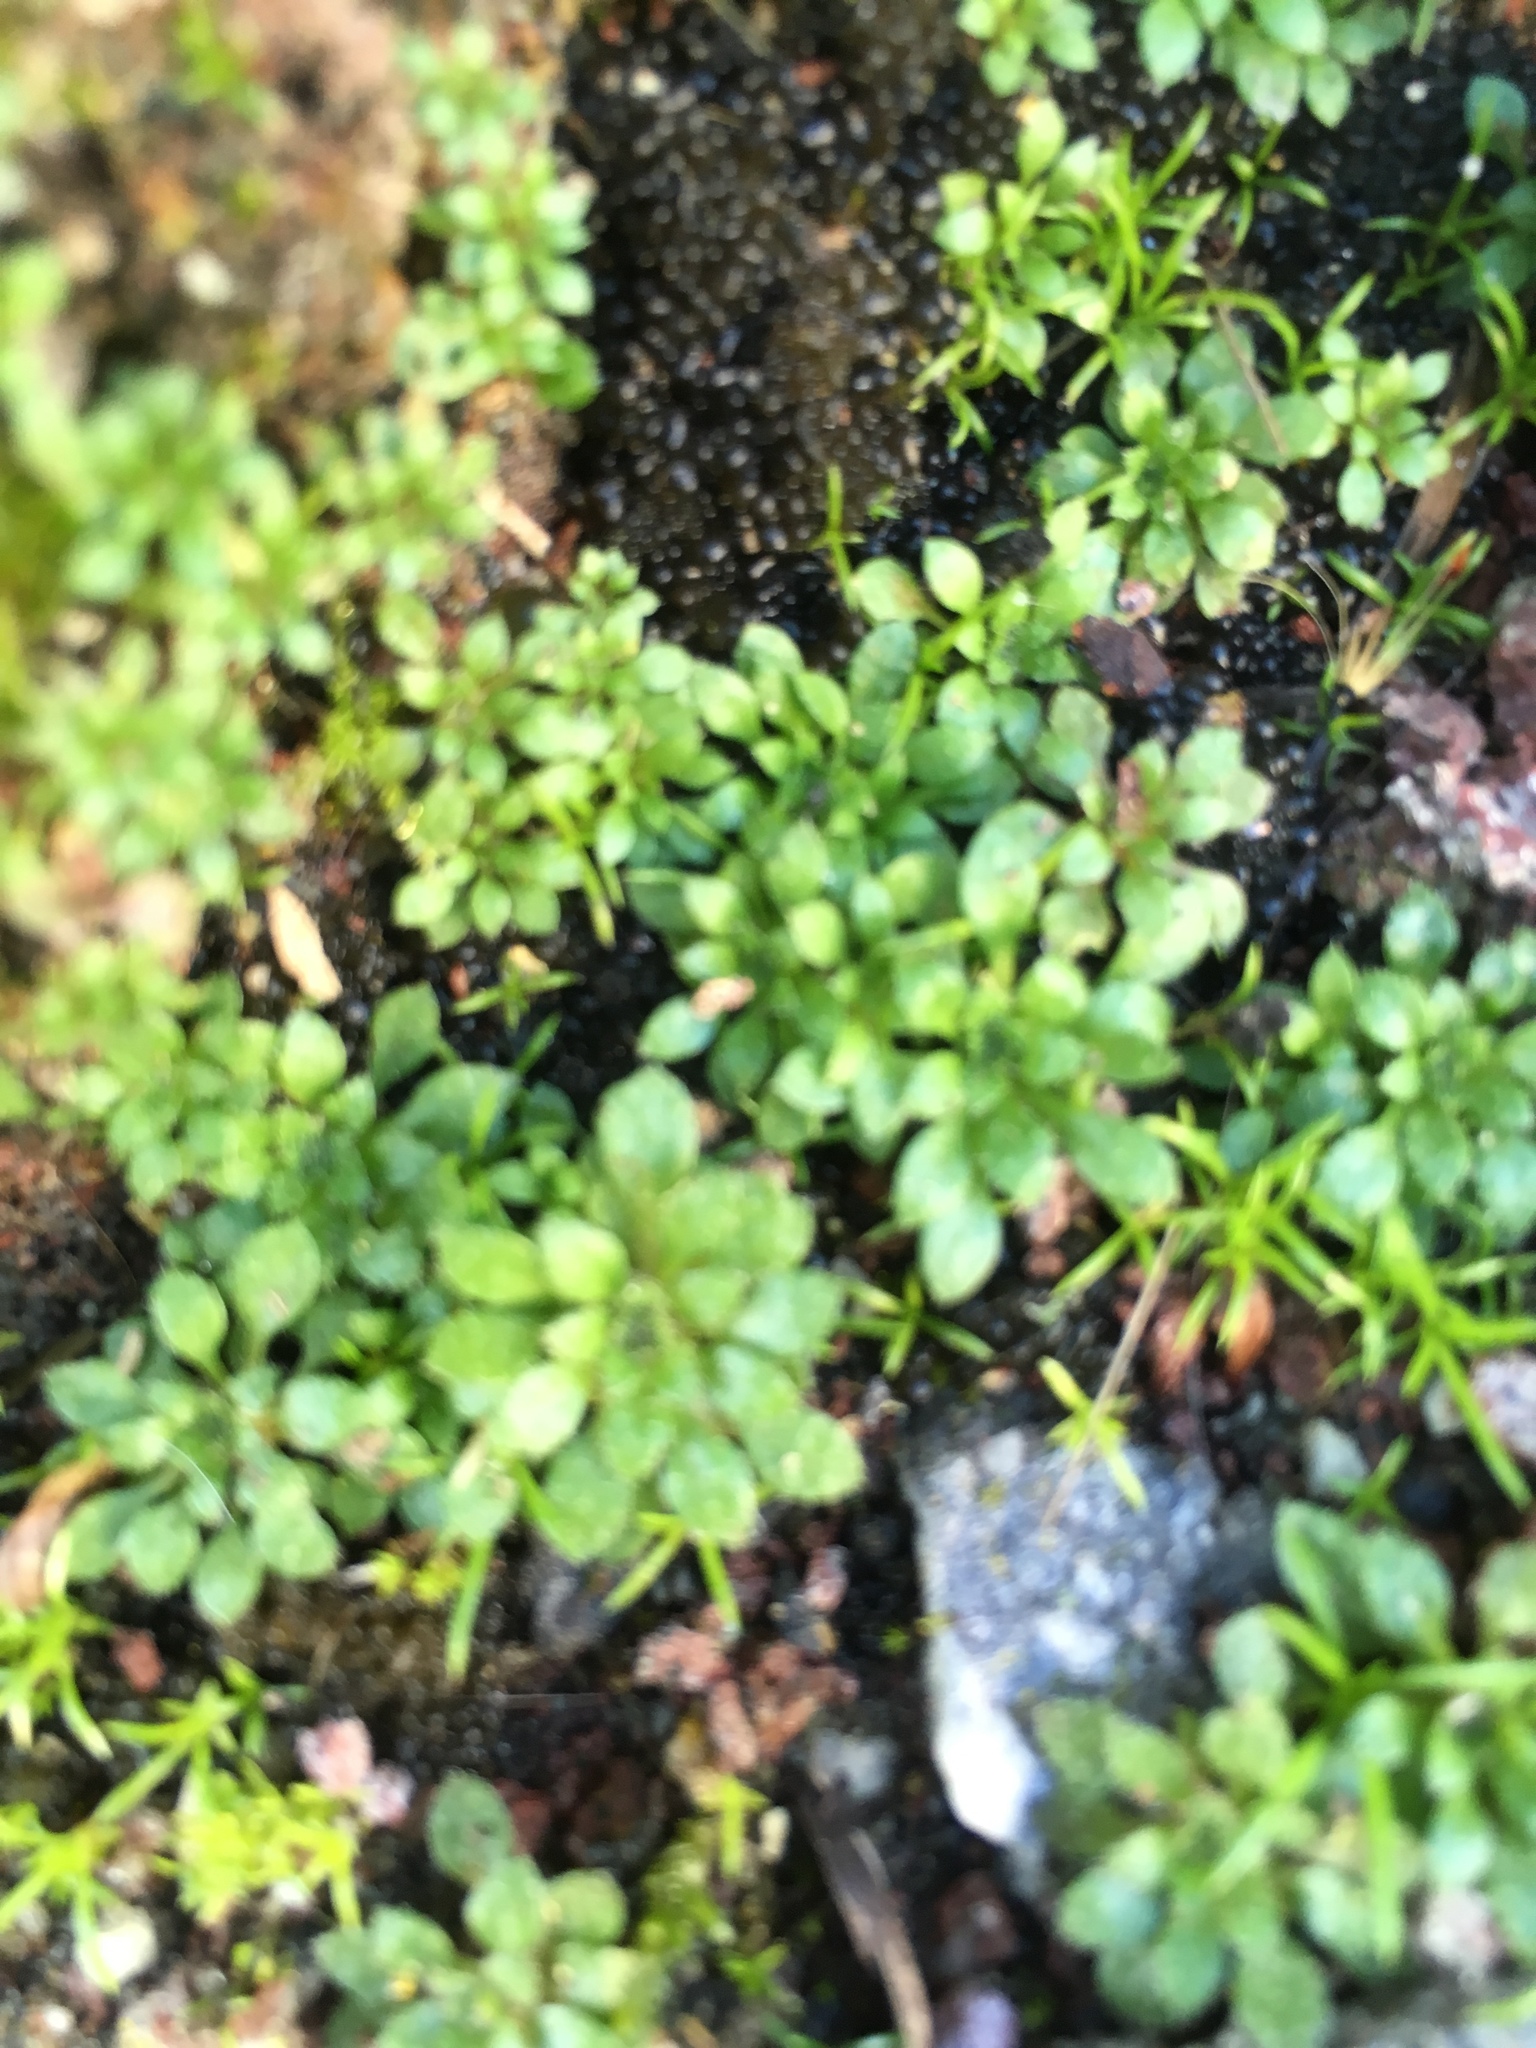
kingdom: Plantae
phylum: Tracheophyta
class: Magnoliopsida
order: Brassicales
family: Brassicaceae
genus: Draba
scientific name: Draba verna
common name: Spring draba
